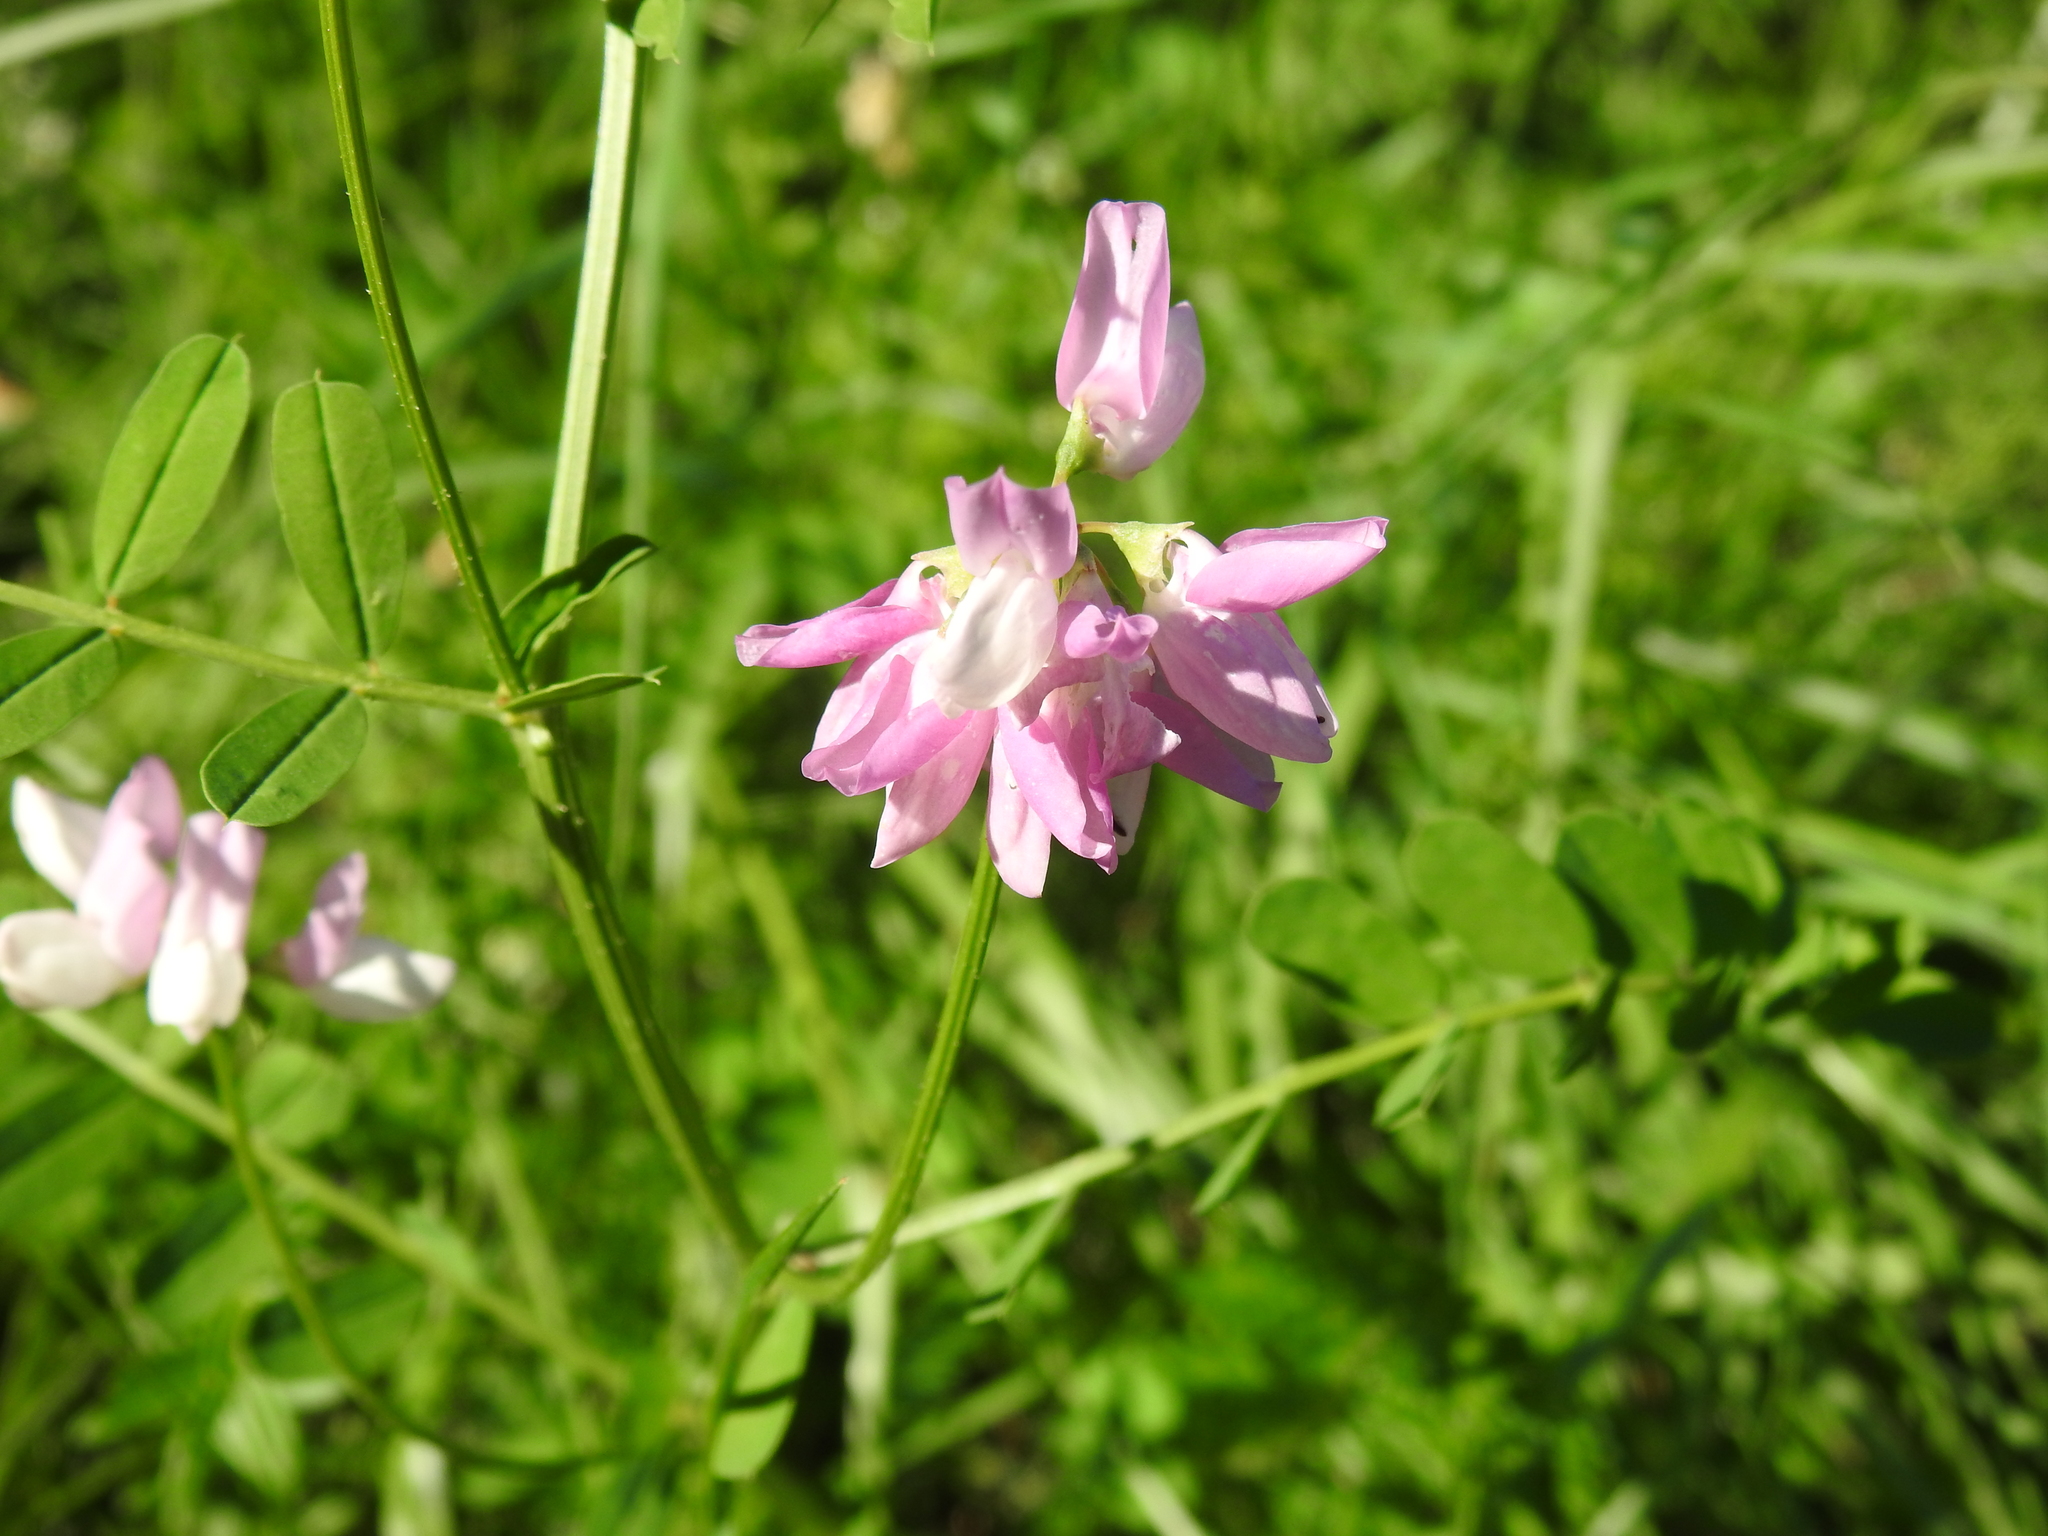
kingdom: Plantae
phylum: Tracheophyta
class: Magnoliopsida
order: Fabales
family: Fabaceae
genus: Coronilla
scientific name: Coronilla varia
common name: Crownvetch
